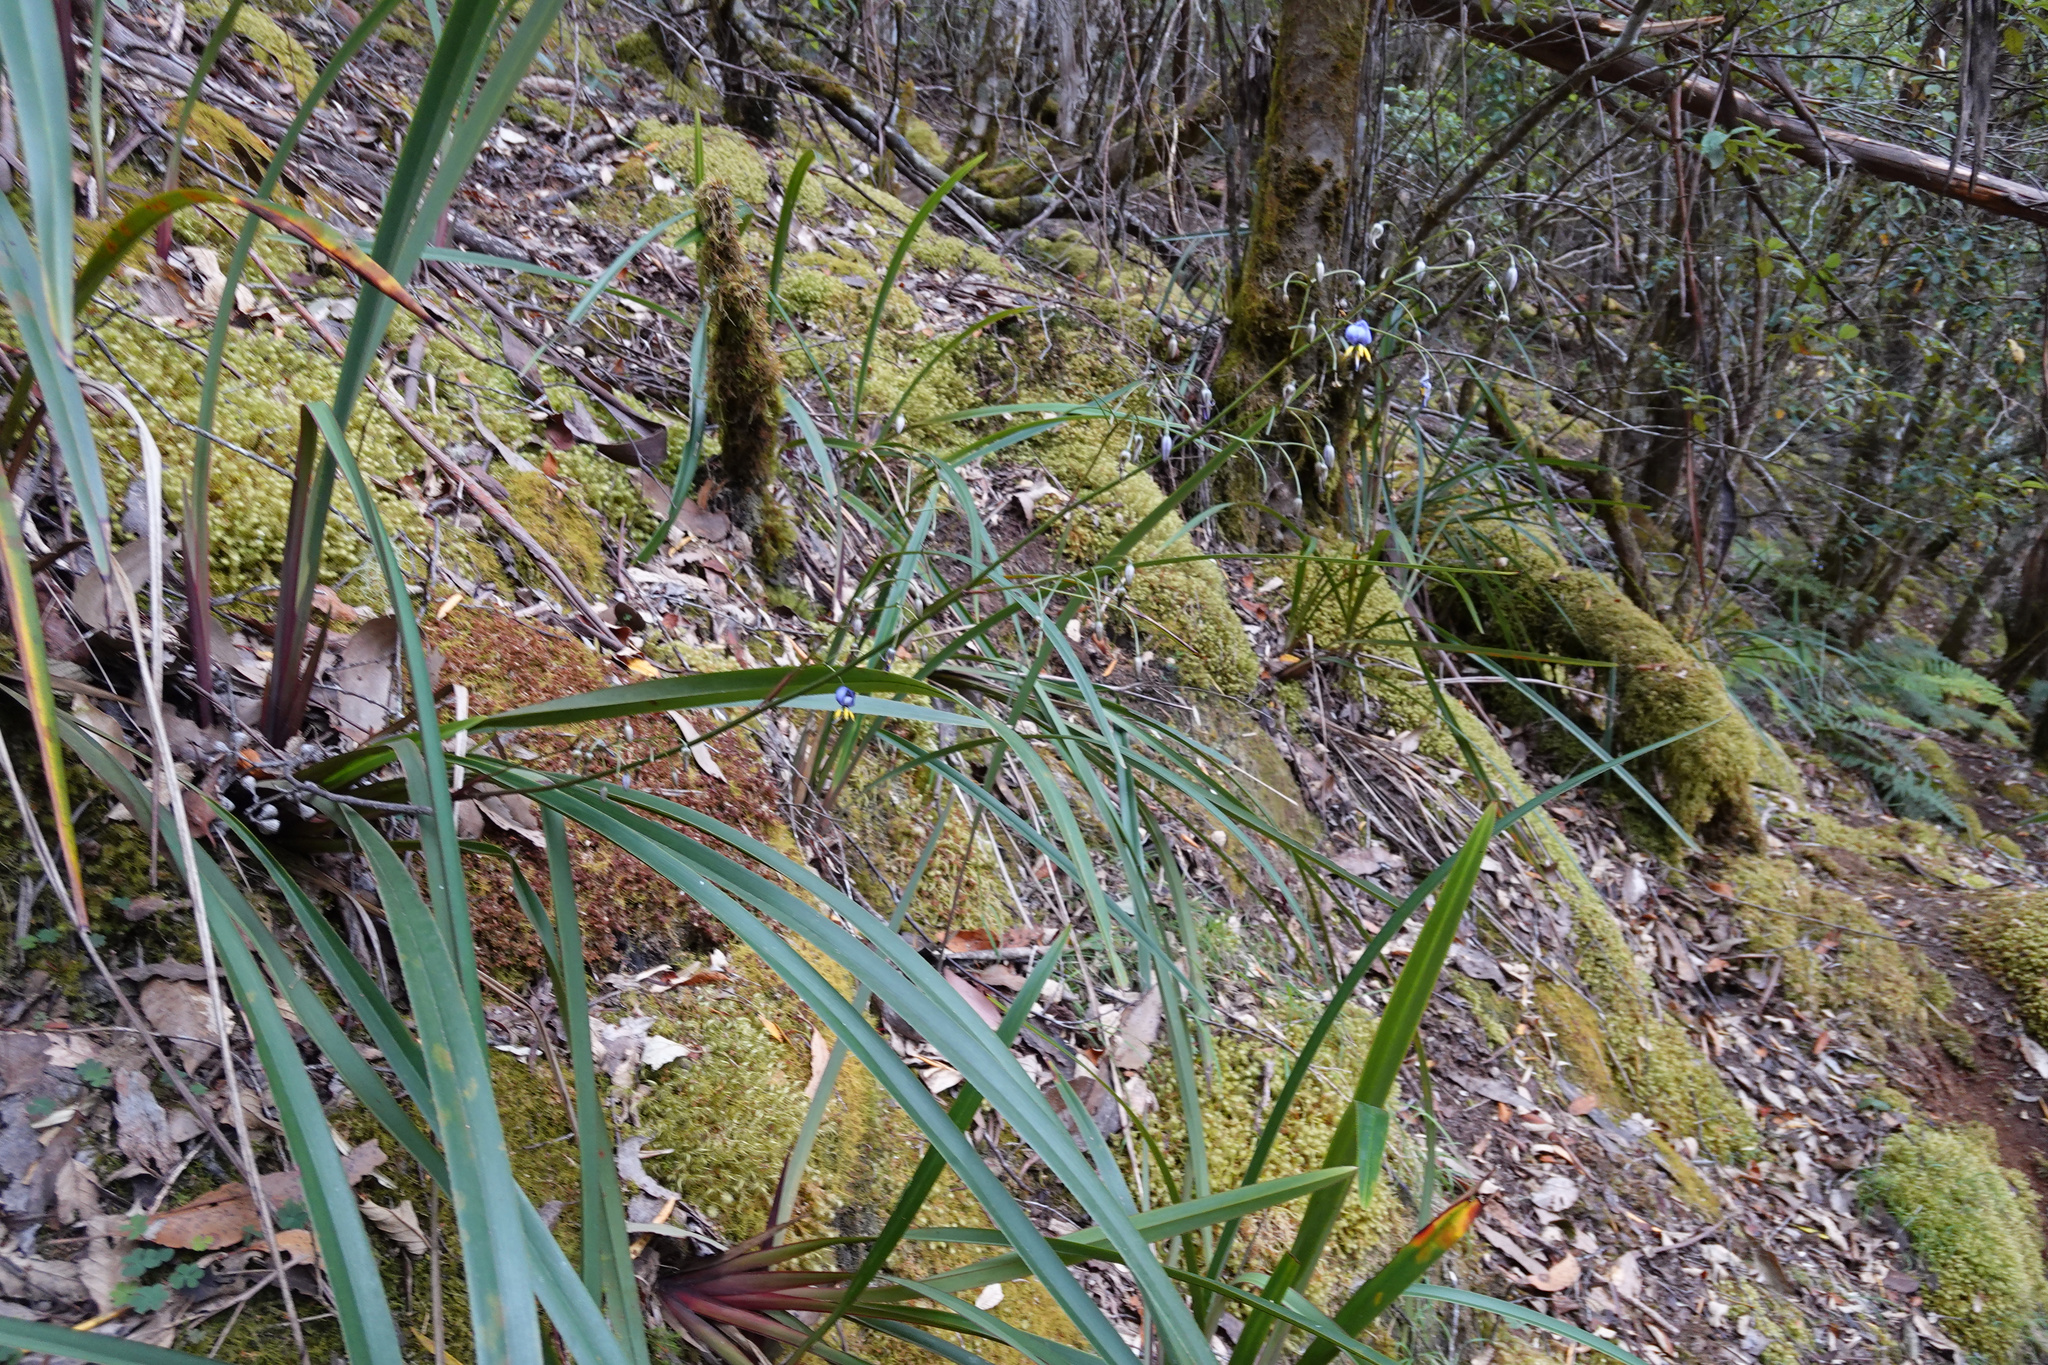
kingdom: Plantae
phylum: Tracheophyta
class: Liliopsida
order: Asparagales
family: Asphodelaceae
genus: Dianella
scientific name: Dianella tasmanica
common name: Tasman flax-lily
